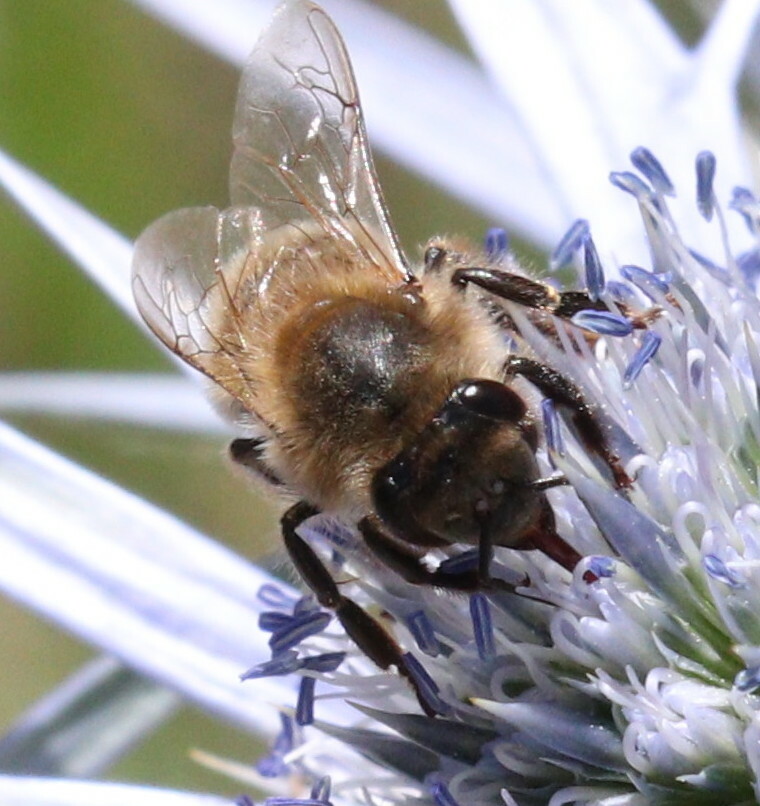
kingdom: Animalia
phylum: Arthropoda
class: Insecta
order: Hymenoptera
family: Apidae
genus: Apis
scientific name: Apis mellifera
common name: Honey bee
